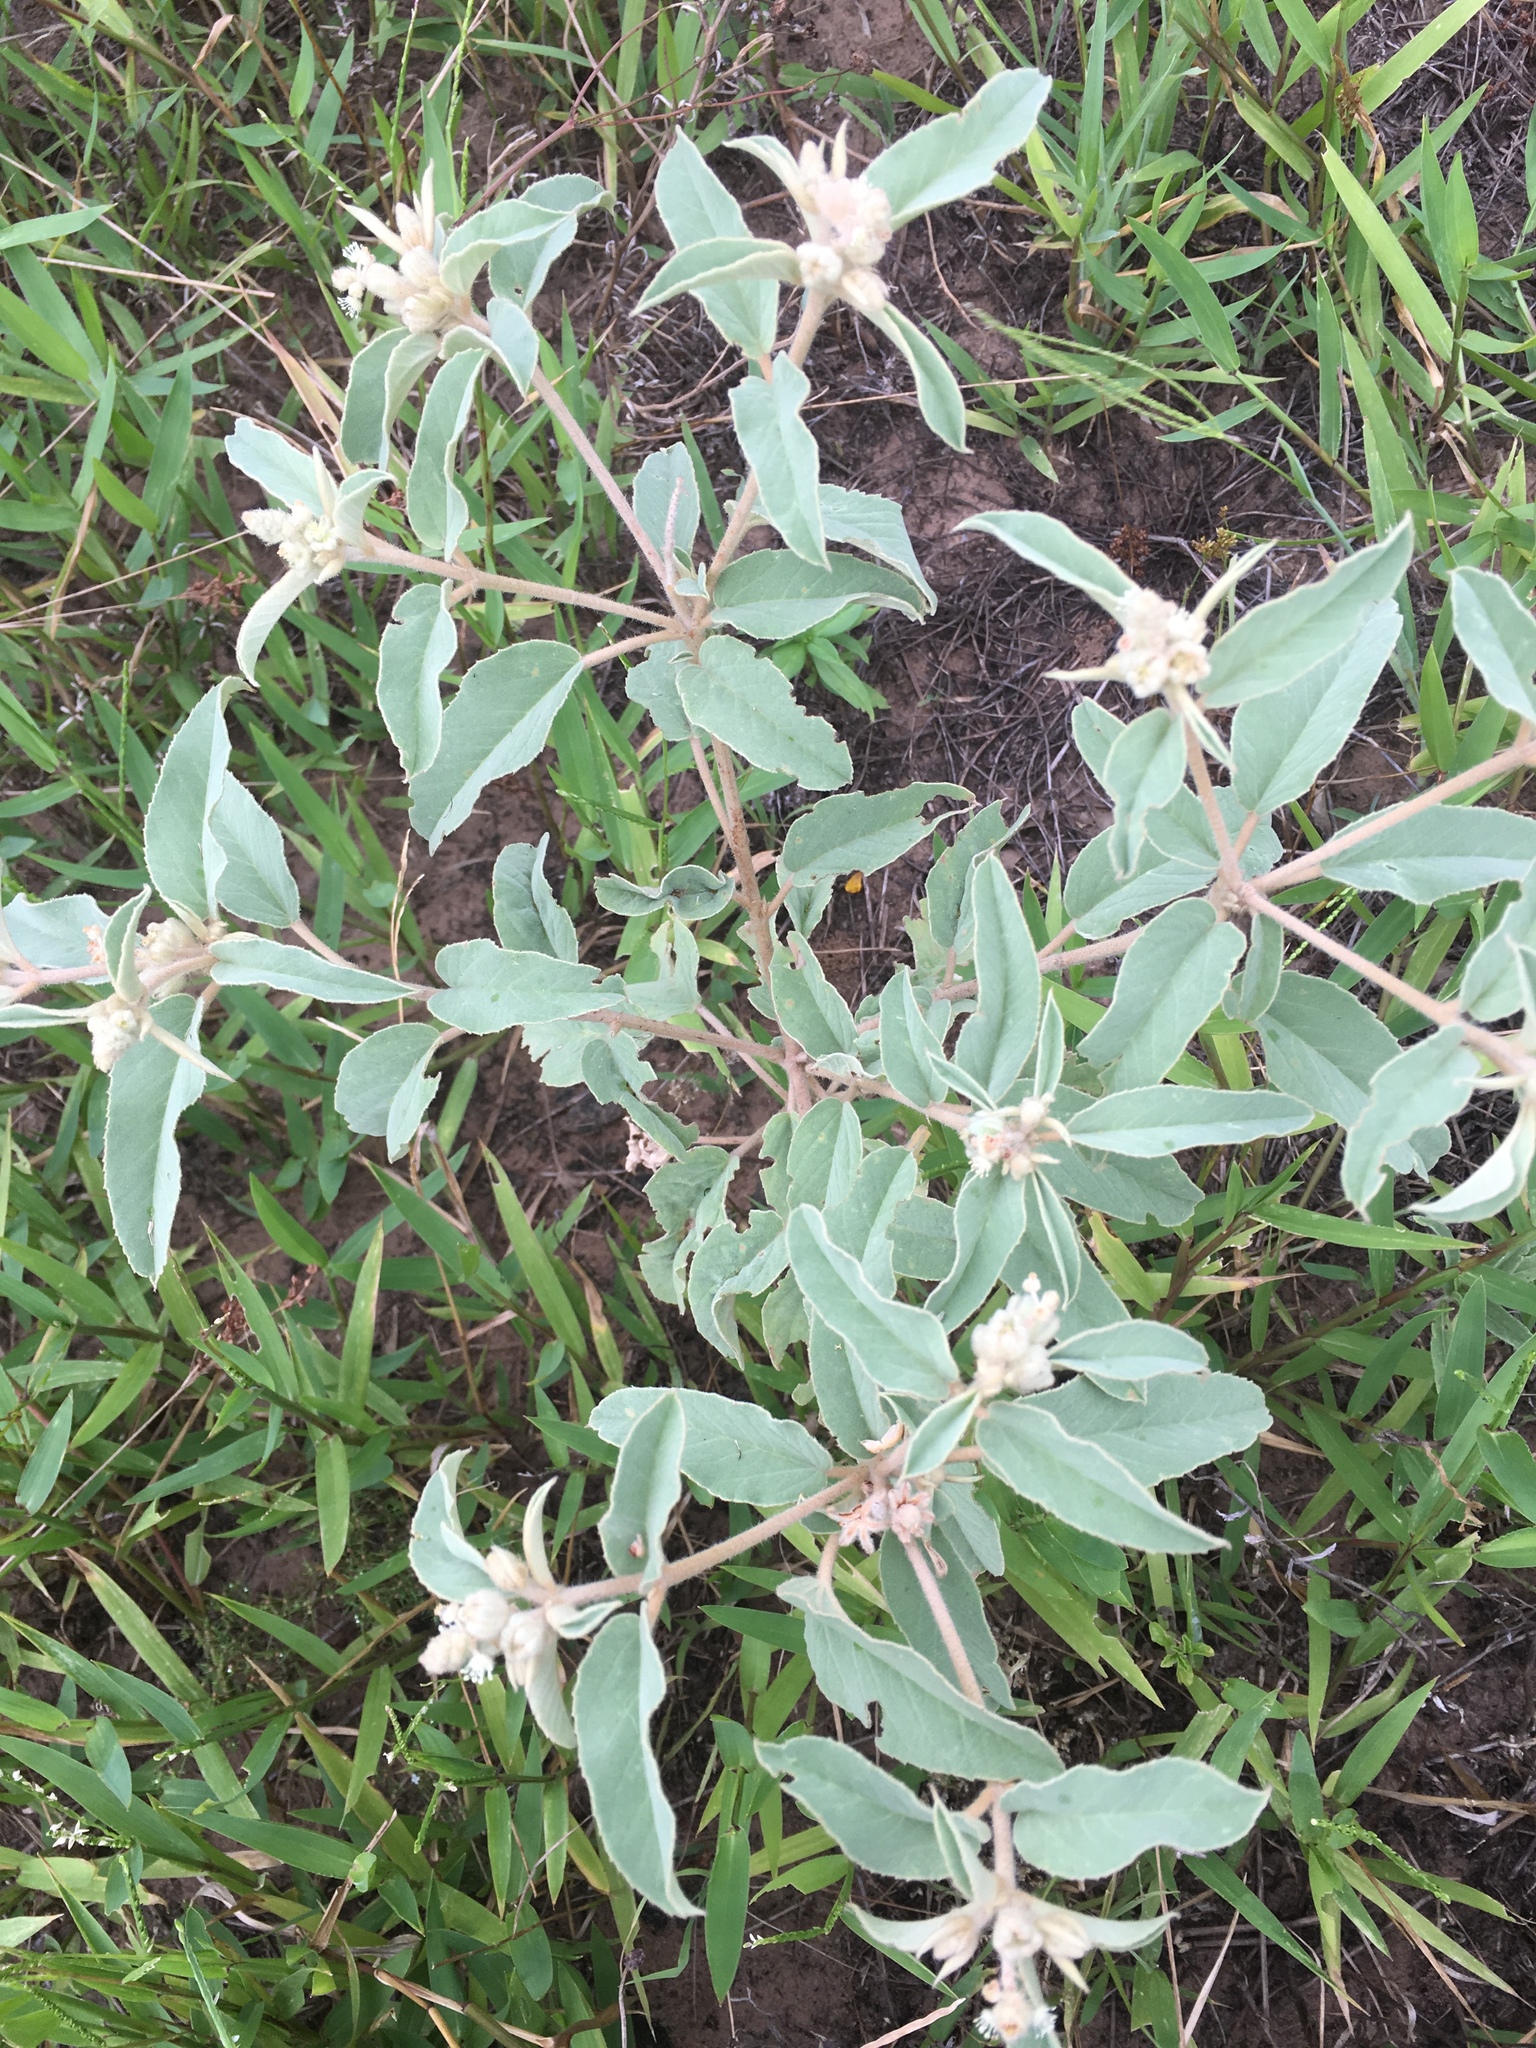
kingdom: Plantae
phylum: Tracheophyta
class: Magnoliopsida
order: Malpighiales
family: Euphorbiaceae
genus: Croton
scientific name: Croton lindheimeri
